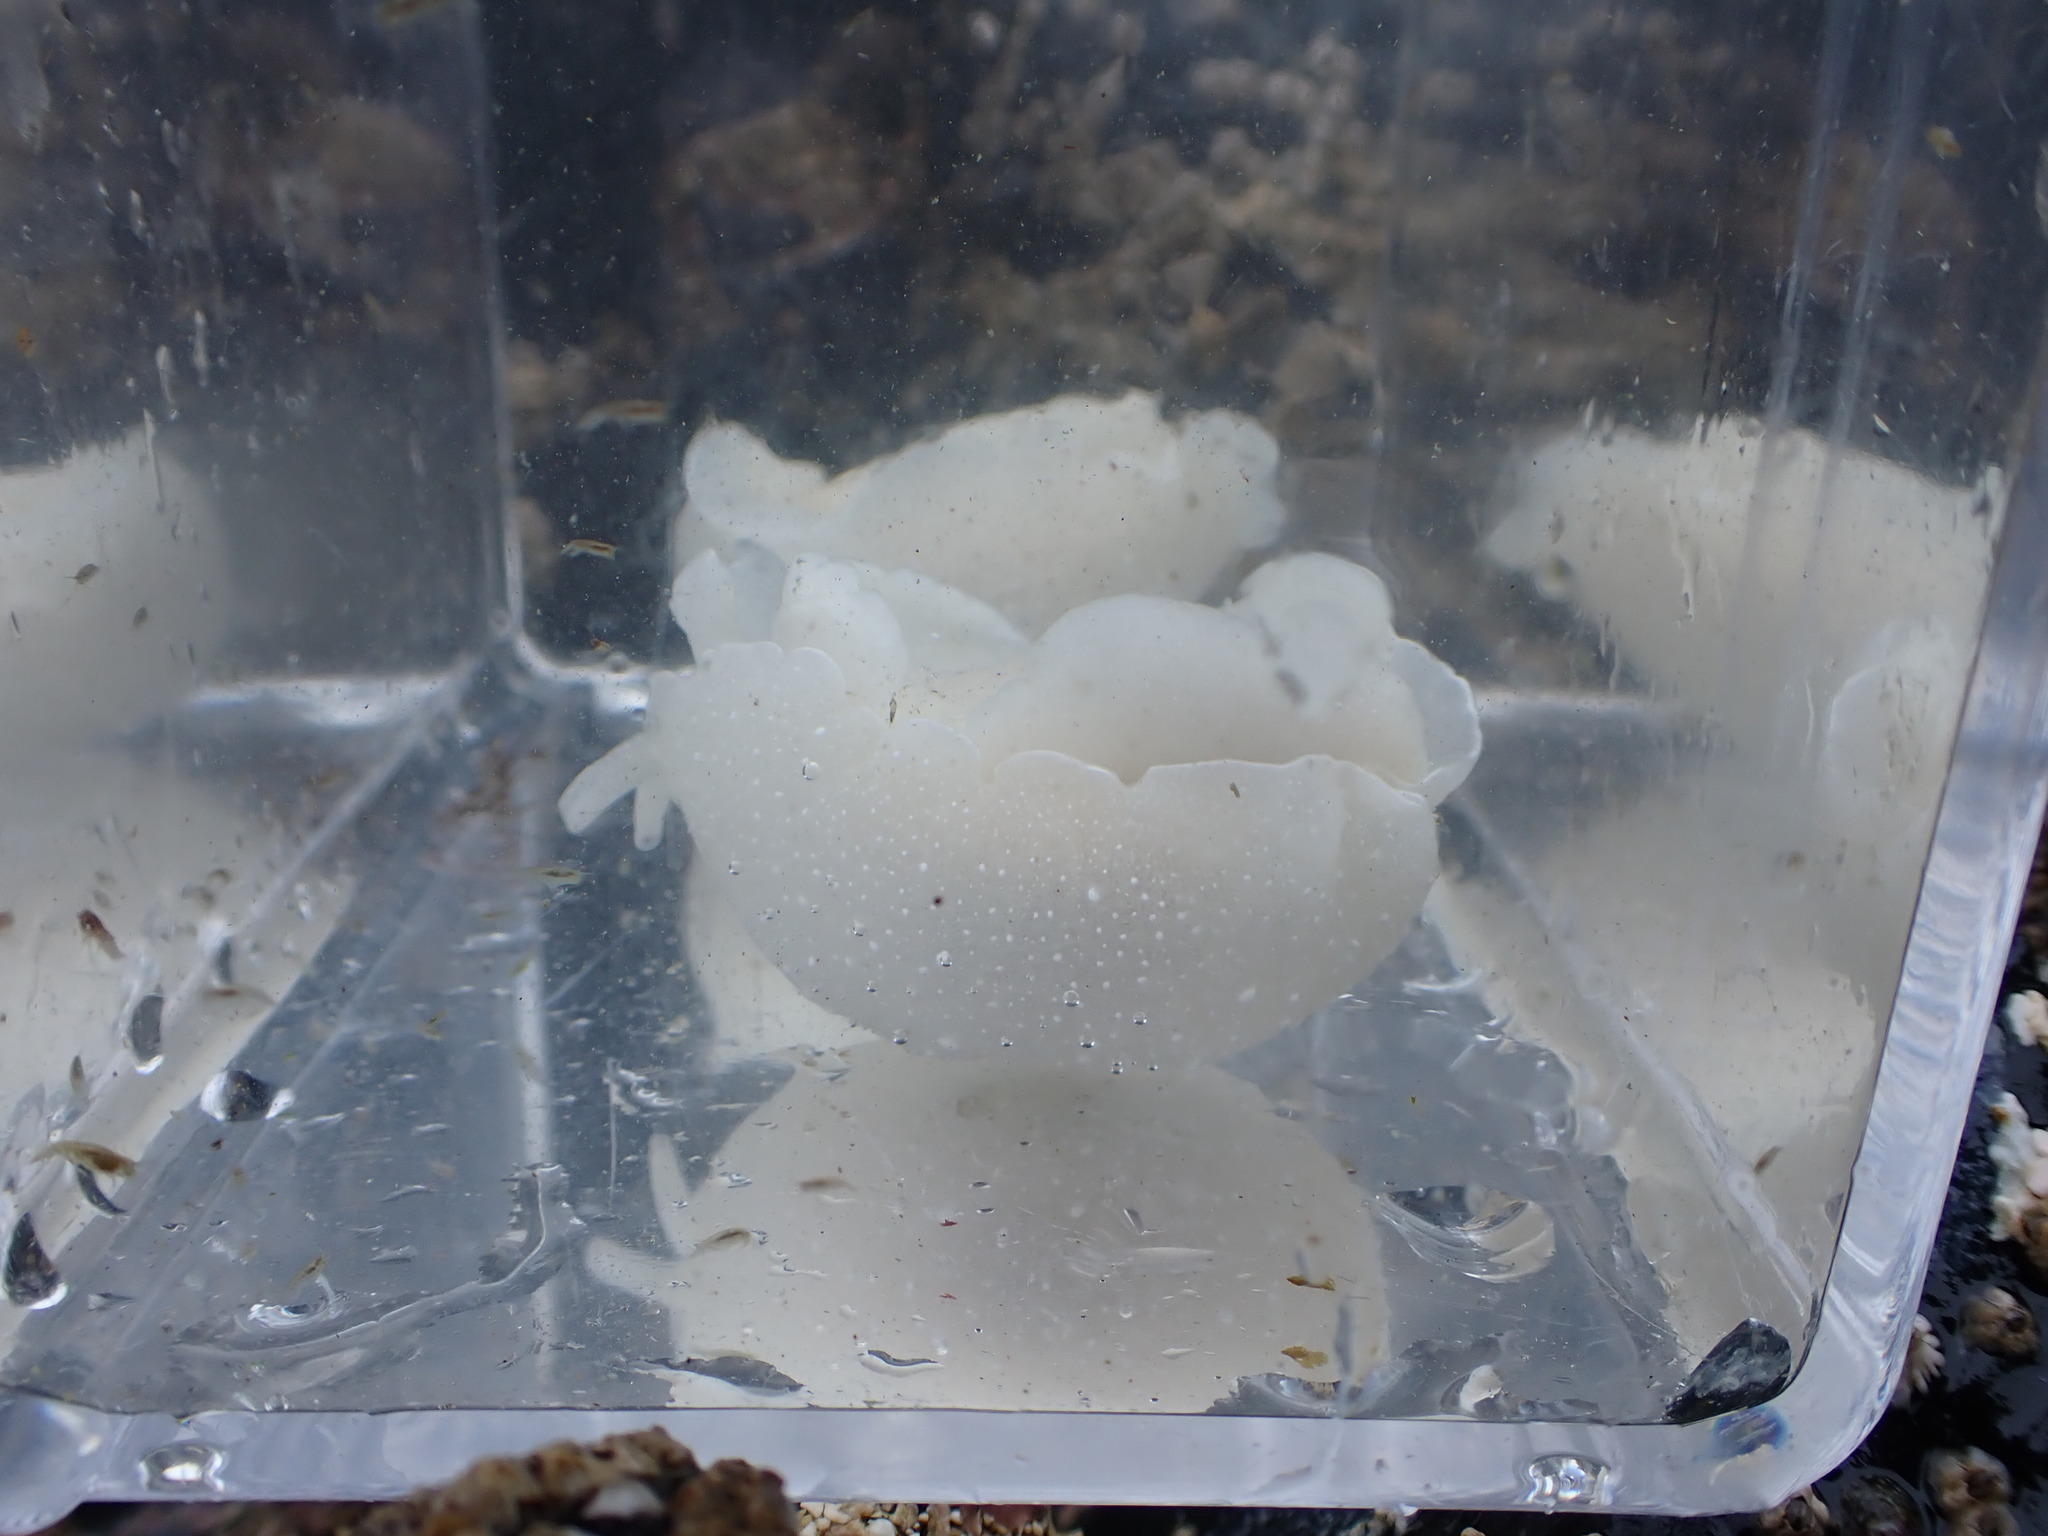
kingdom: Animalia
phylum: Mollusca
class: Gastropoda
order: Pleurobranchida
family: Pleurobranchidae
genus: Boreoberthella
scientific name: Boreoberthella
